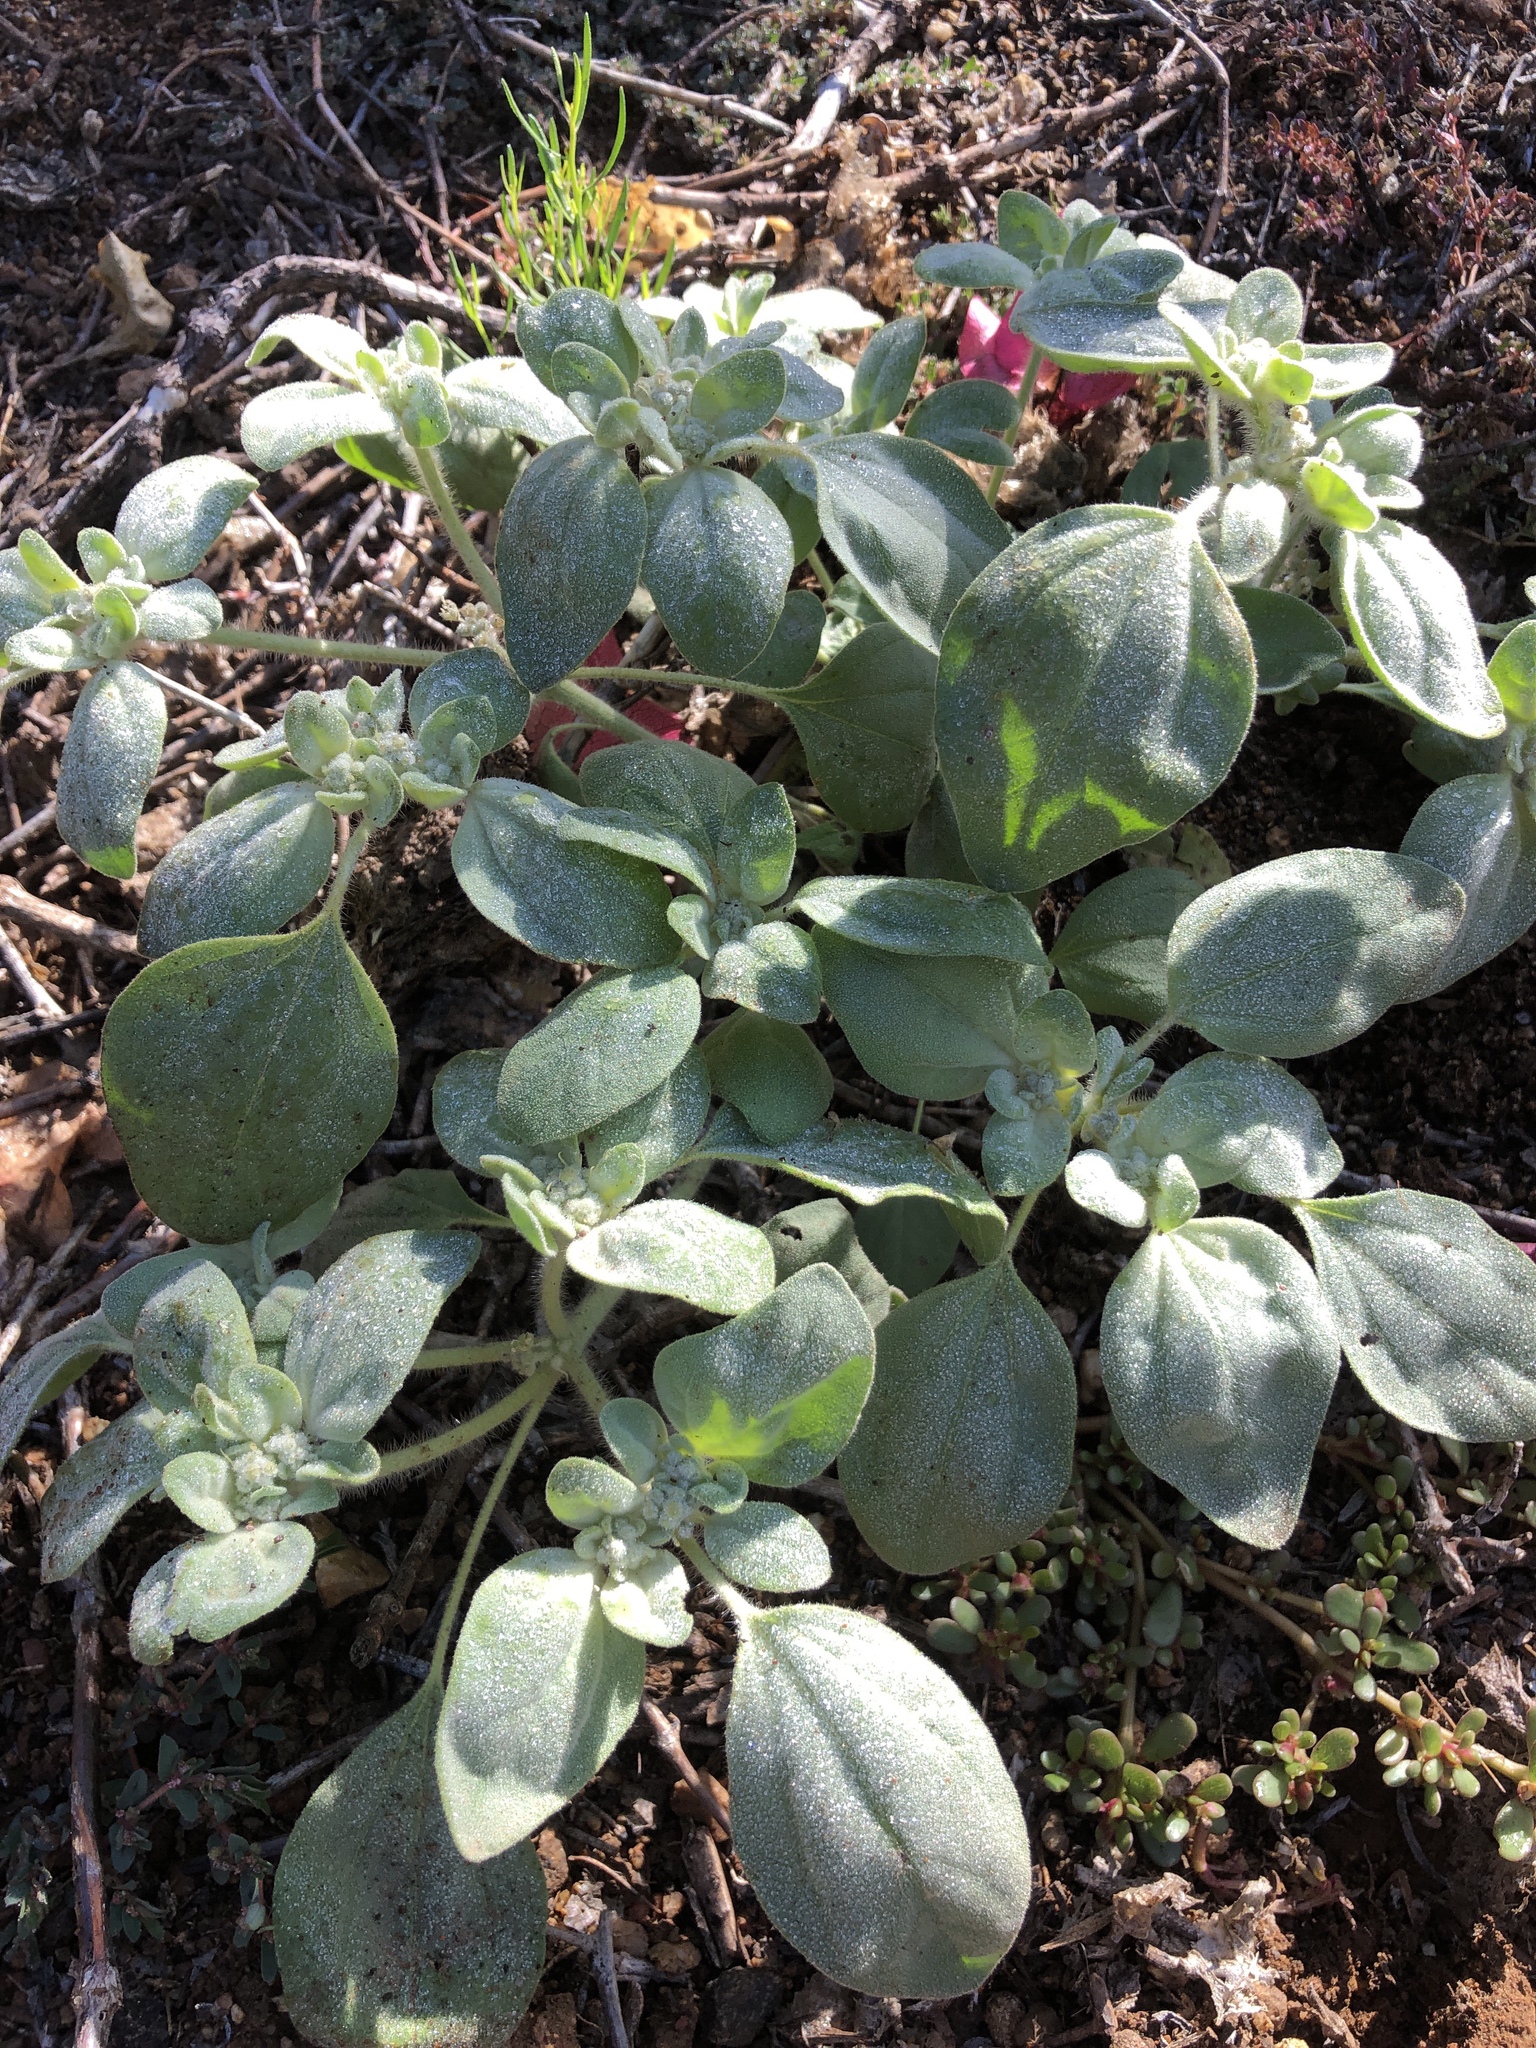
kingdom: Plantae
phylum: Tracheophyta
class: Magnoliopsida
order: Malpighiales
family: Euphorbiaceae
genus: Croton
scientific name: Croton setiger
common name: Dove weed
